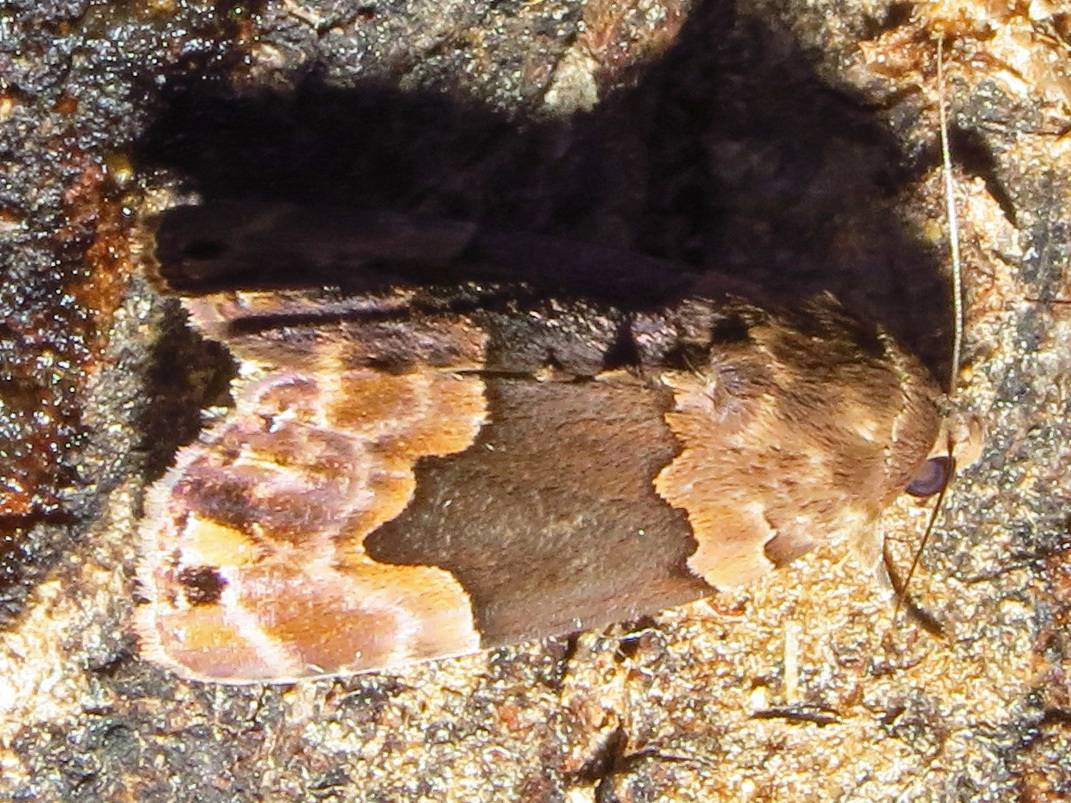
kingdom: Animalia
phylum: Arthropoda
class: Insecta
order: Lepidoptera
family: Erebidae
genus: Dinumma
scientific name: Dinumma deponens
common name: Purplish moth
